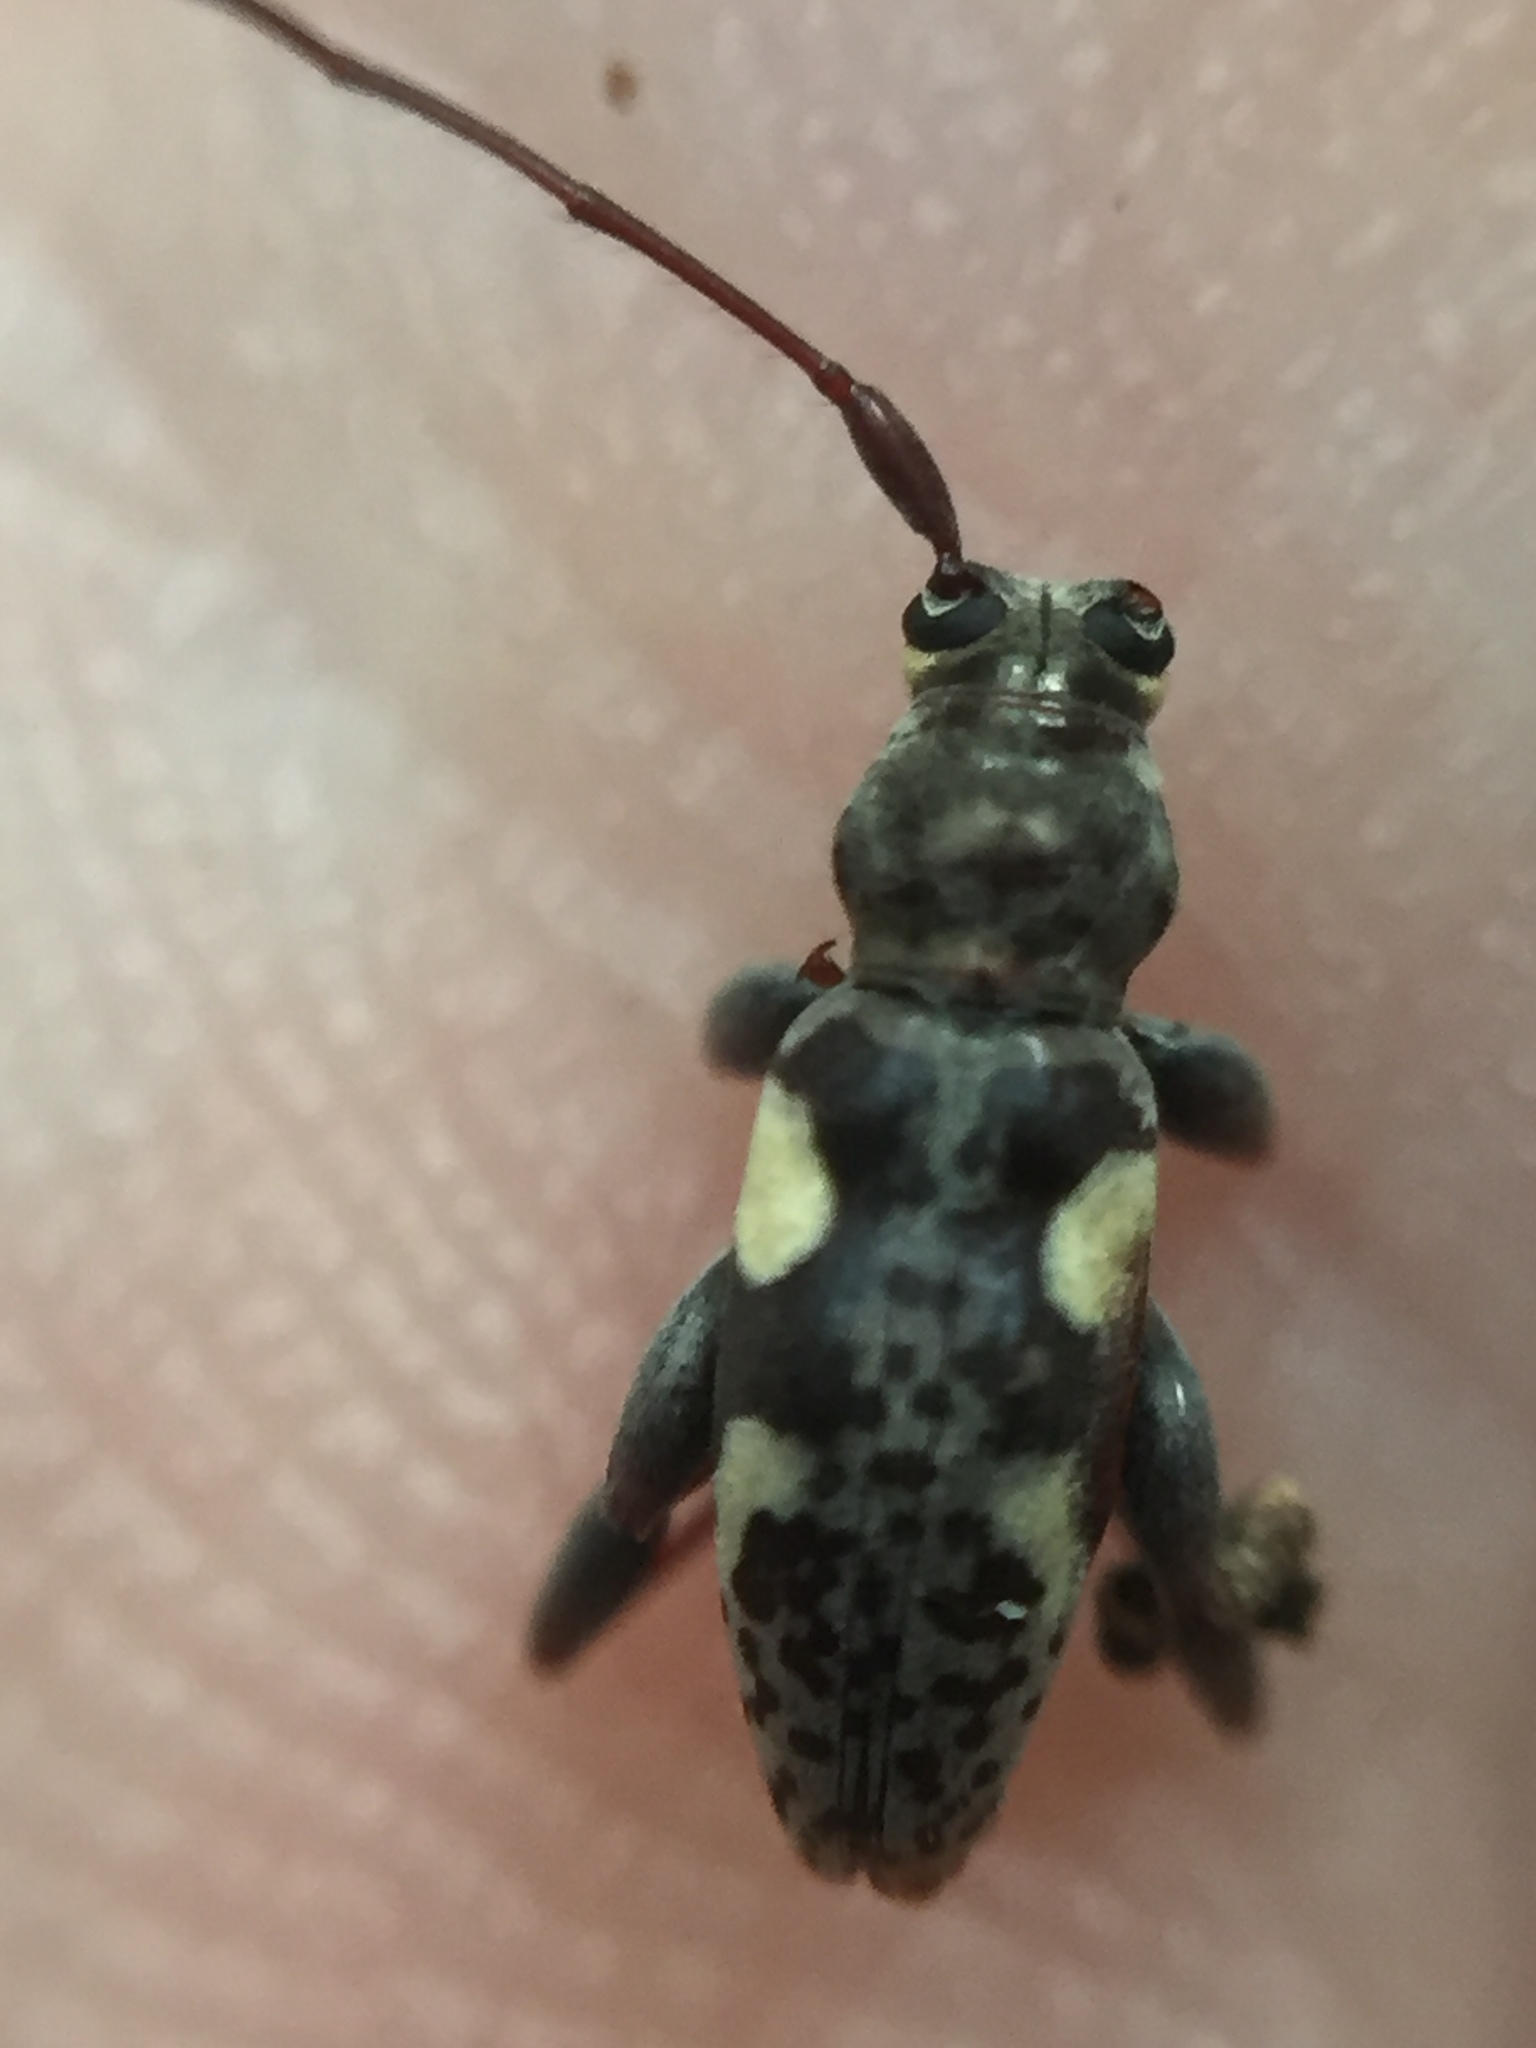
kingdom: Animalia
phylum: Arthropoda
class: Insecta
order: Coleoptera
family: Cerambycidae
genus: Stenellipsis
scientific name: Stenellipsis bimaculata
